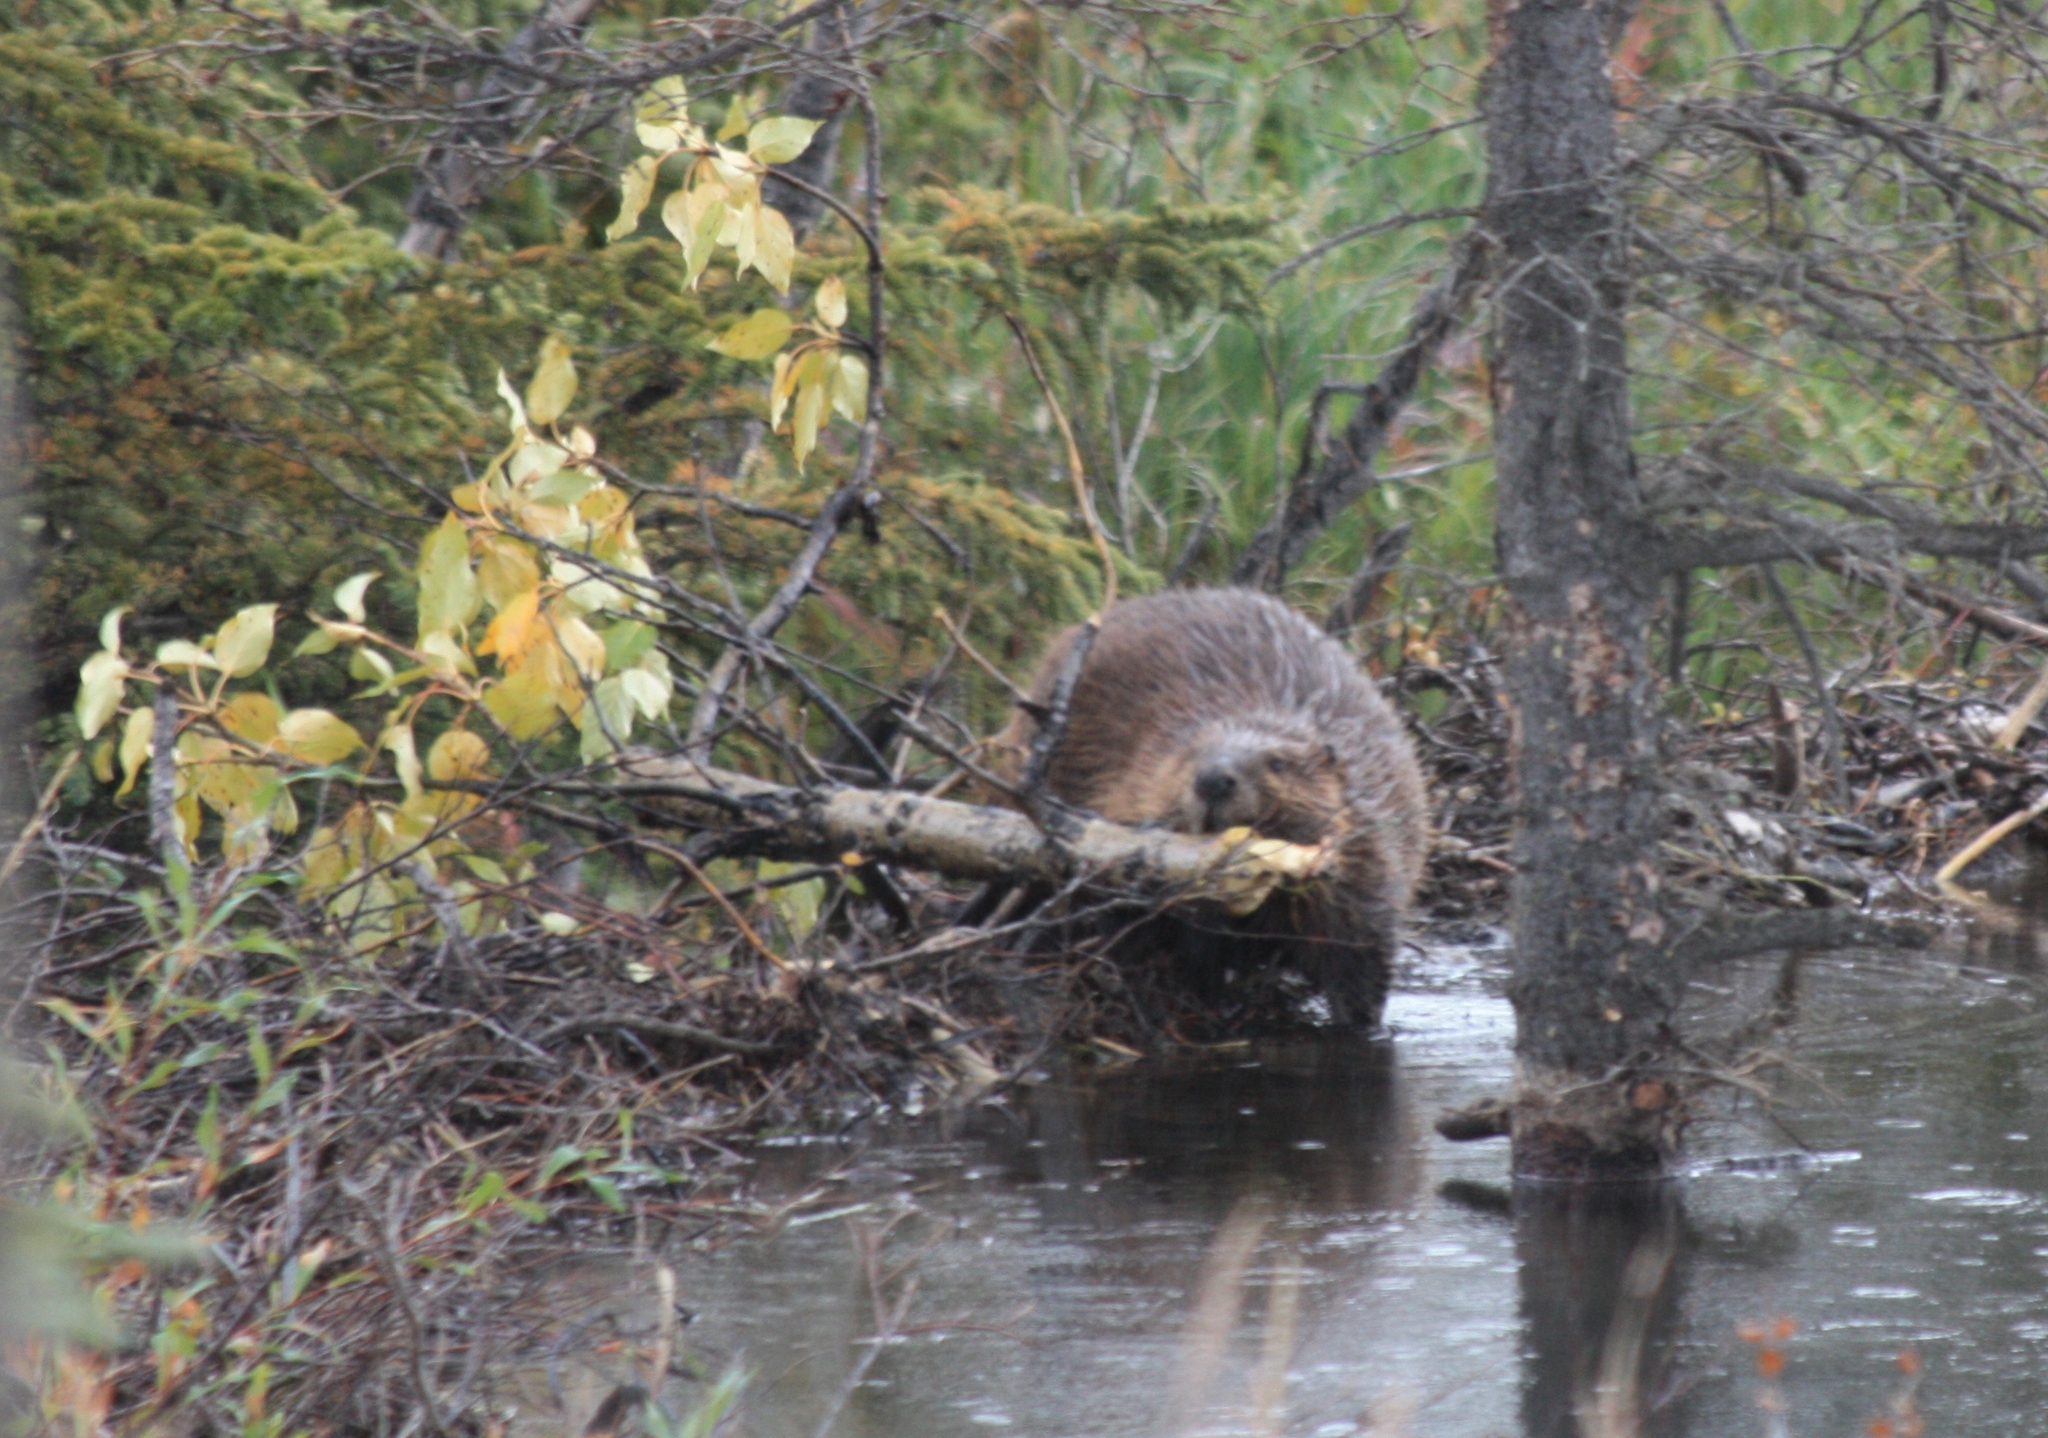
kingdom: Animalia
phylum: Chordata
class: Mammalia
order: Rodentia
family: Castoridae
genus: Castor
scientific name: Castor canadensis
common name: American beaver
